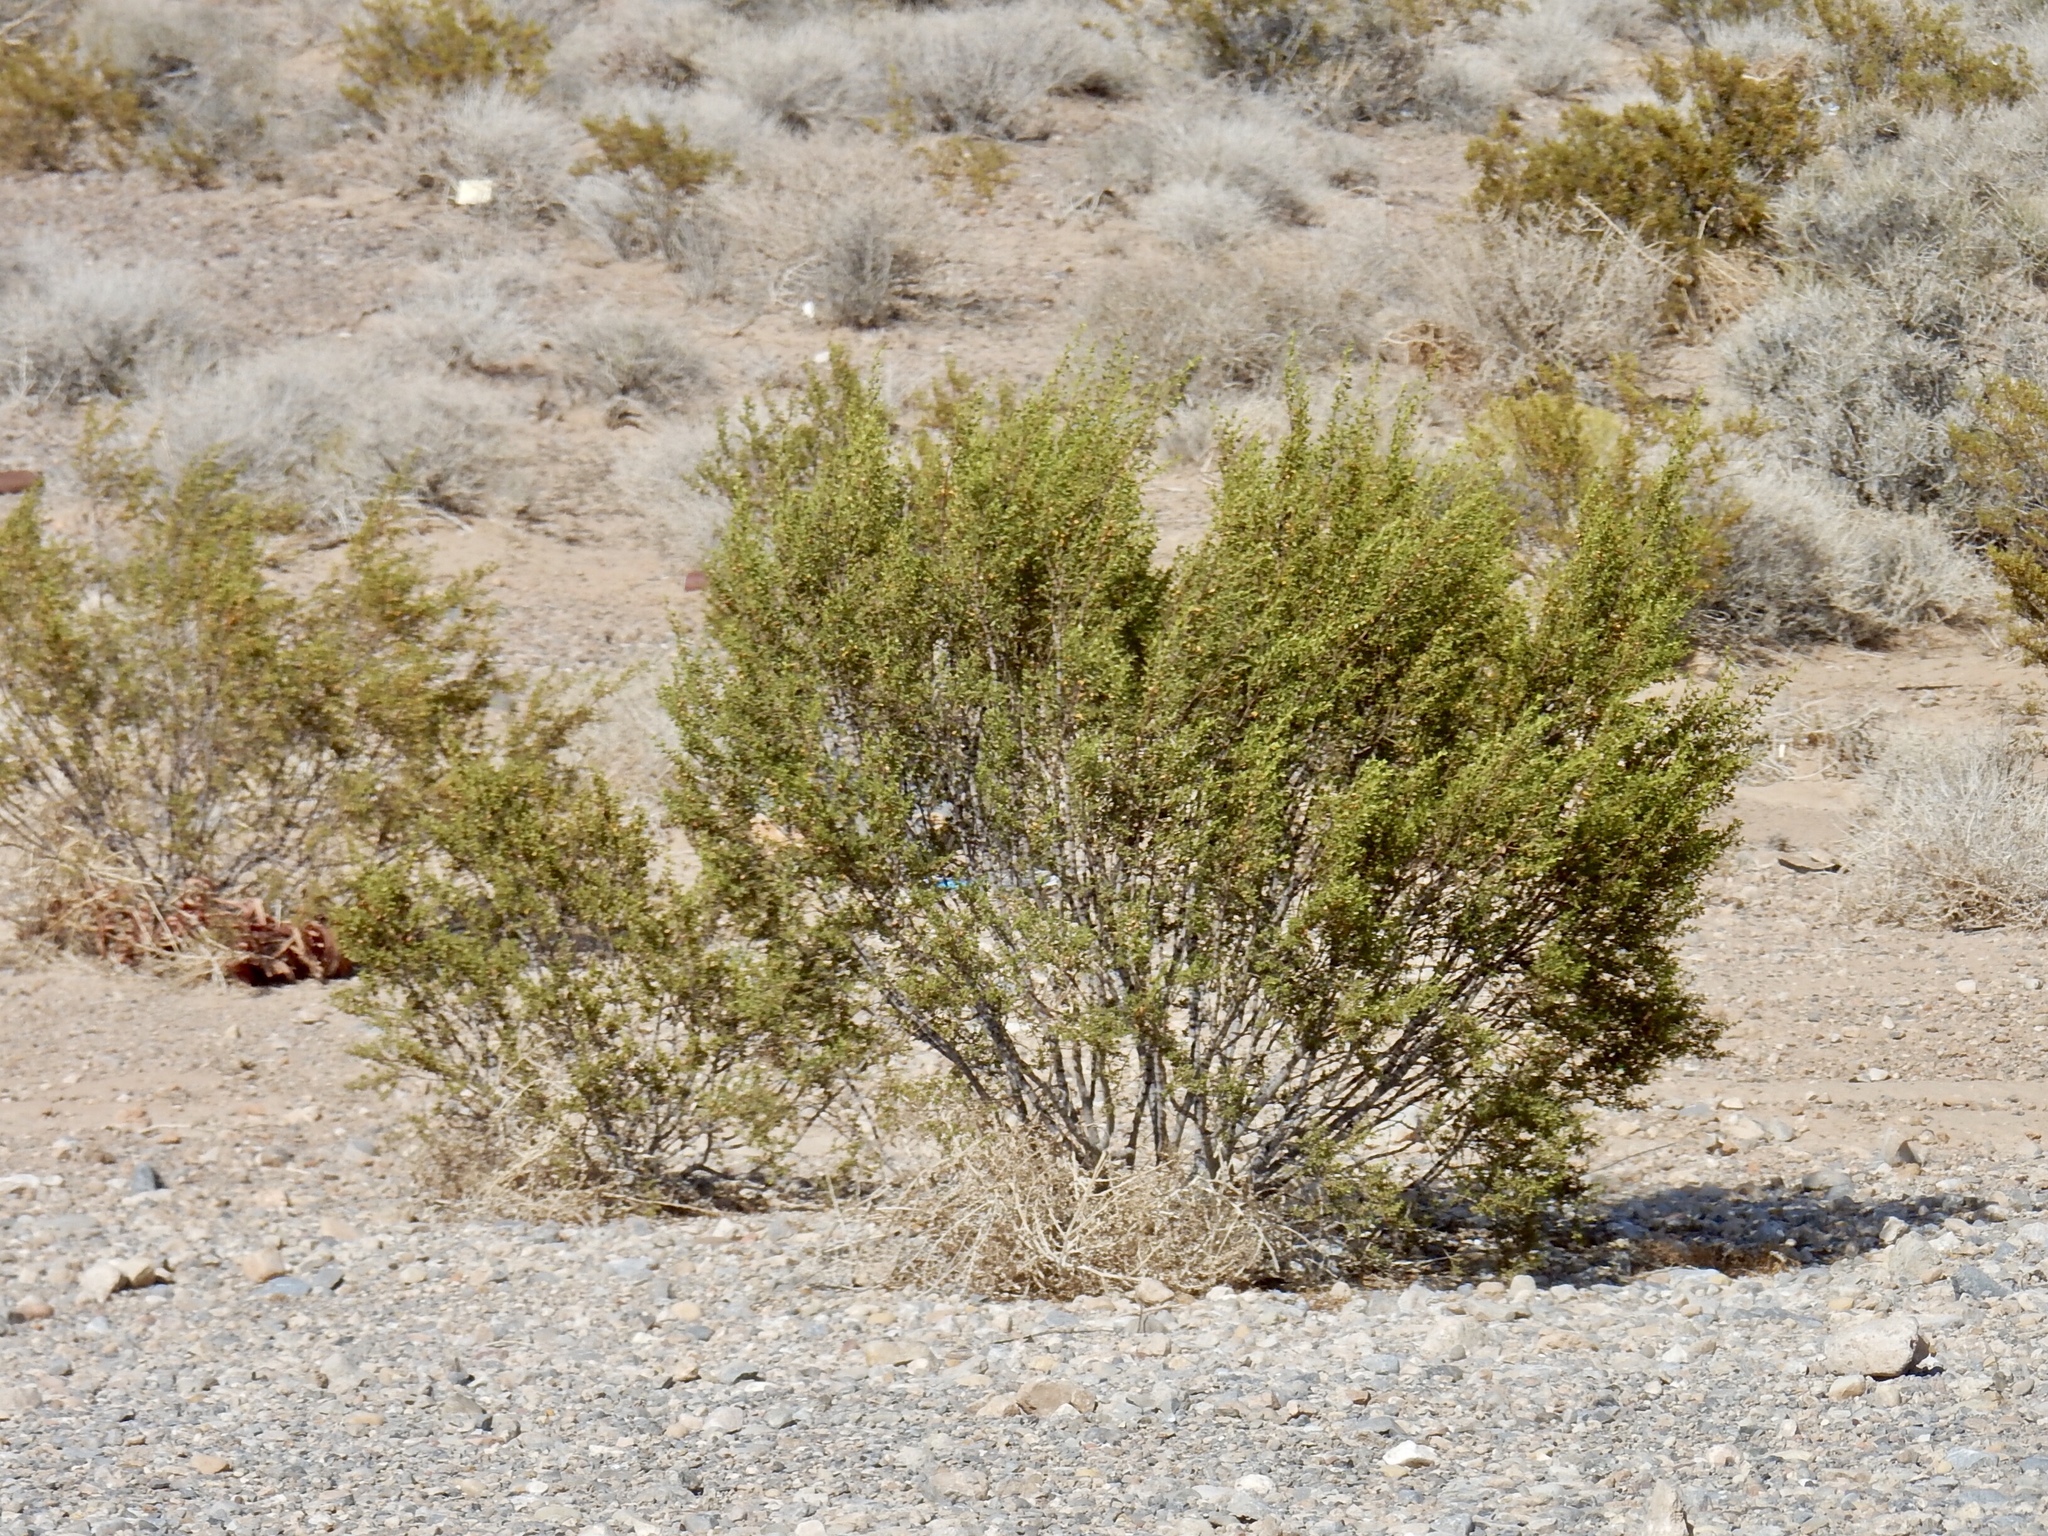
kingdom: Plantae
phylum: Tracheophyta
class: Magnoliopsida
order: Zygophyllales
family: Zygophyllaceae
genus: Larrea
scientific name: Larrea tridentata
